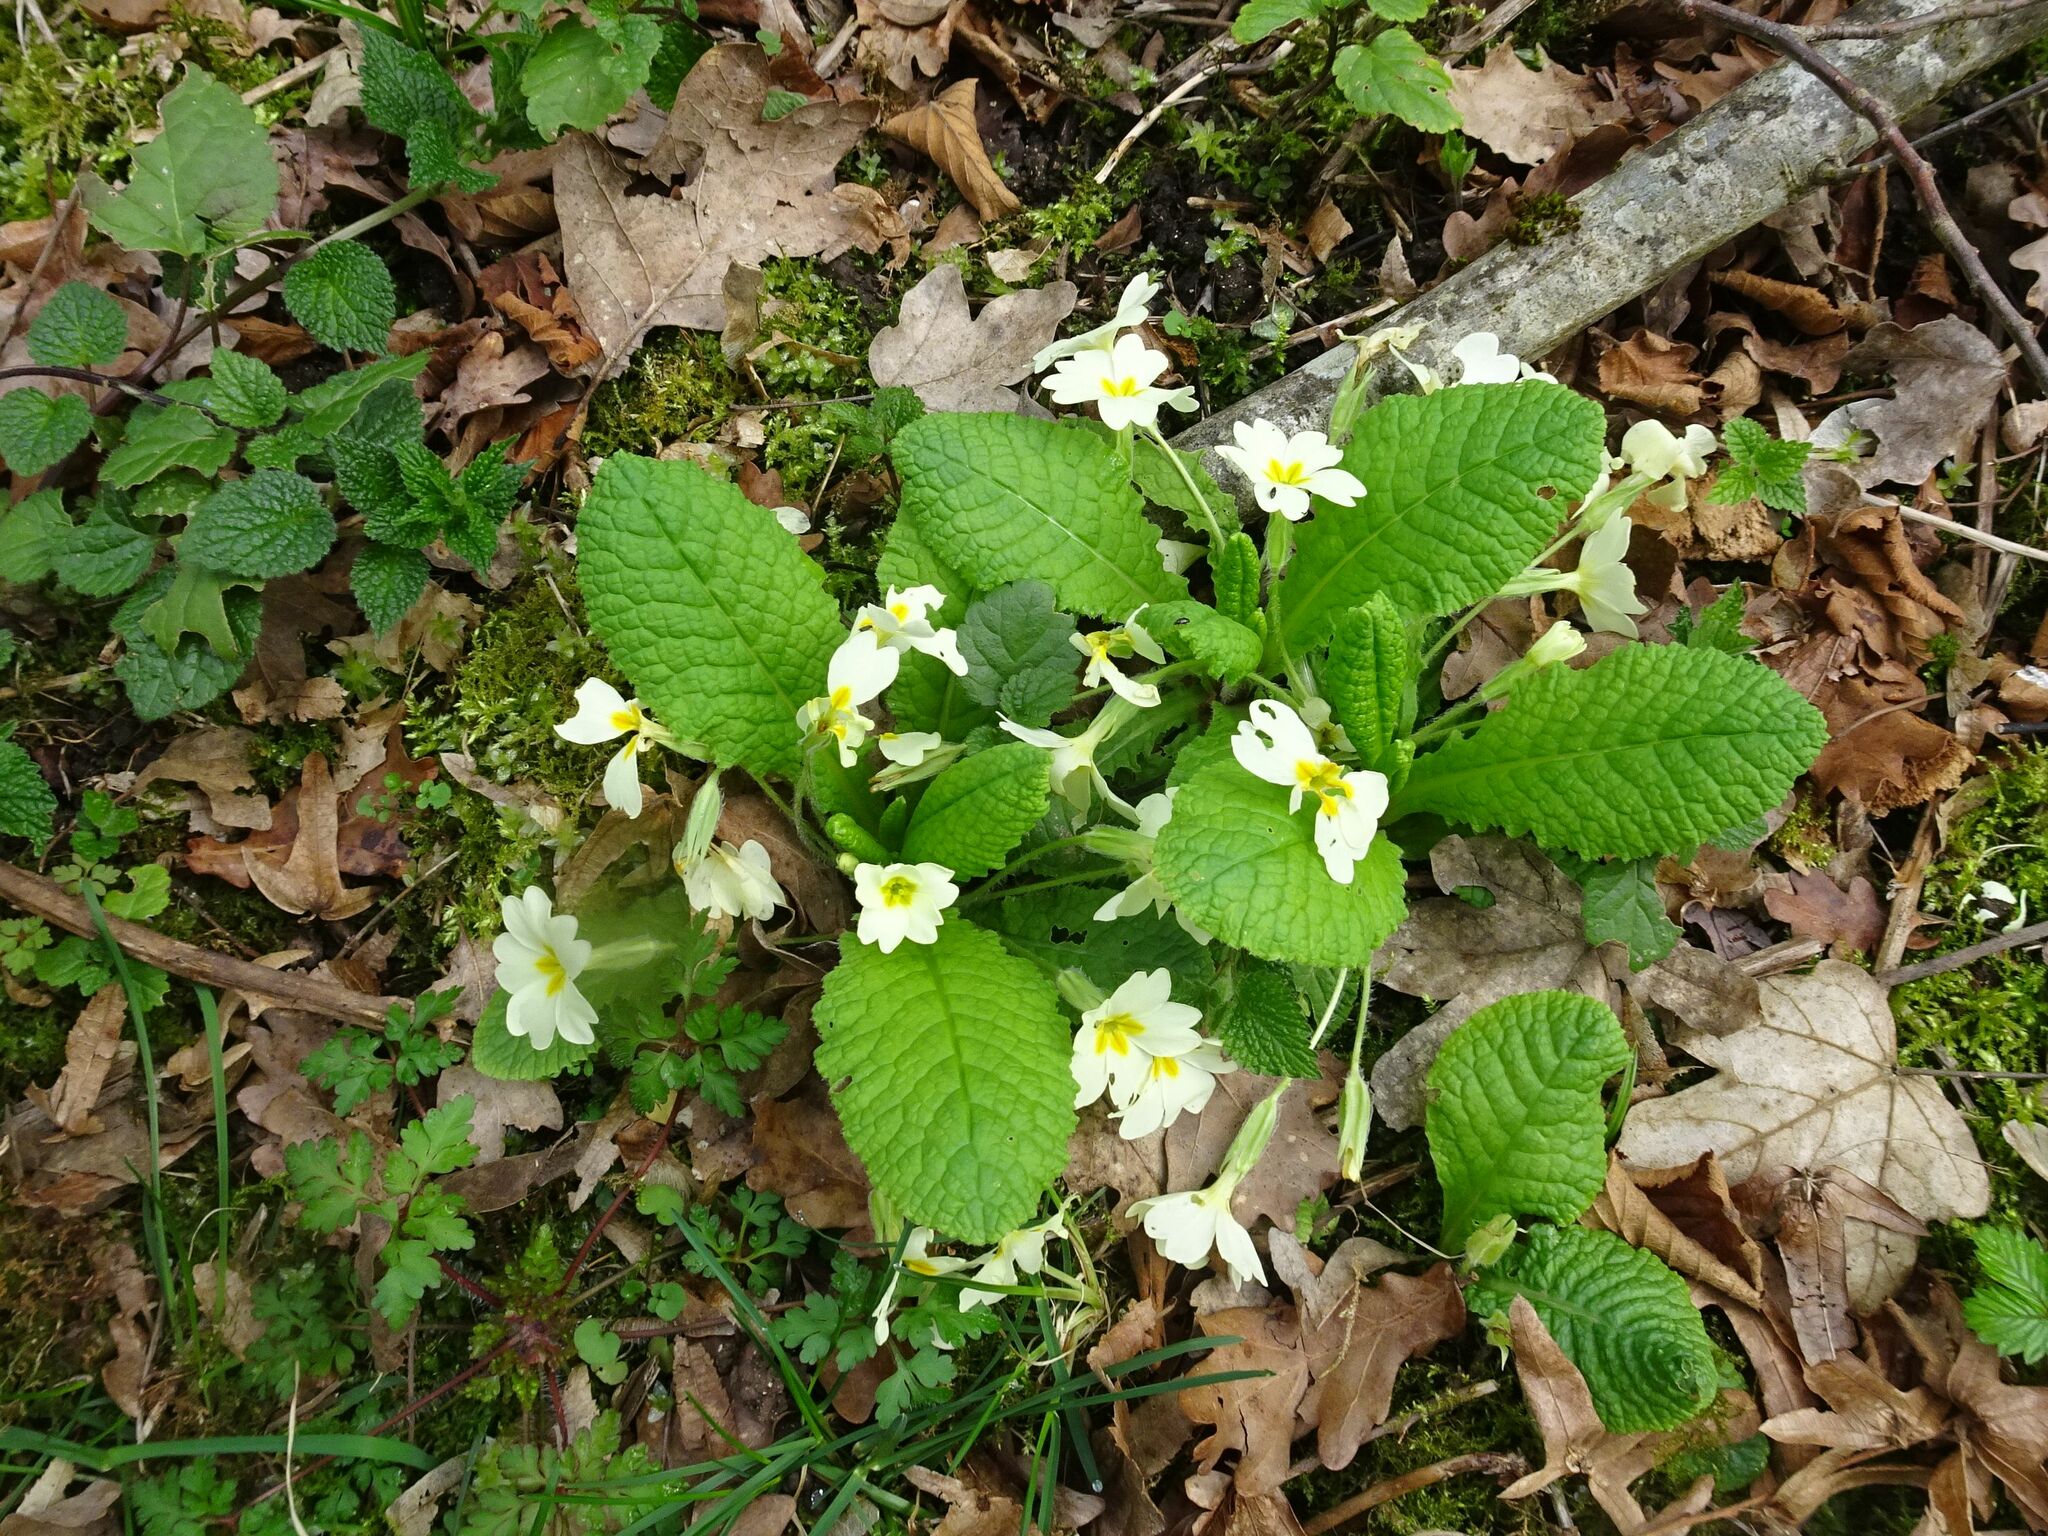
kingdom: Plantae
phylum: Tracheophyta
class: Magnoliopsida
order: Ericales
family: Primulaceae
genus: Primula
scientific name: Primula vulgaris
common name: Primrose
